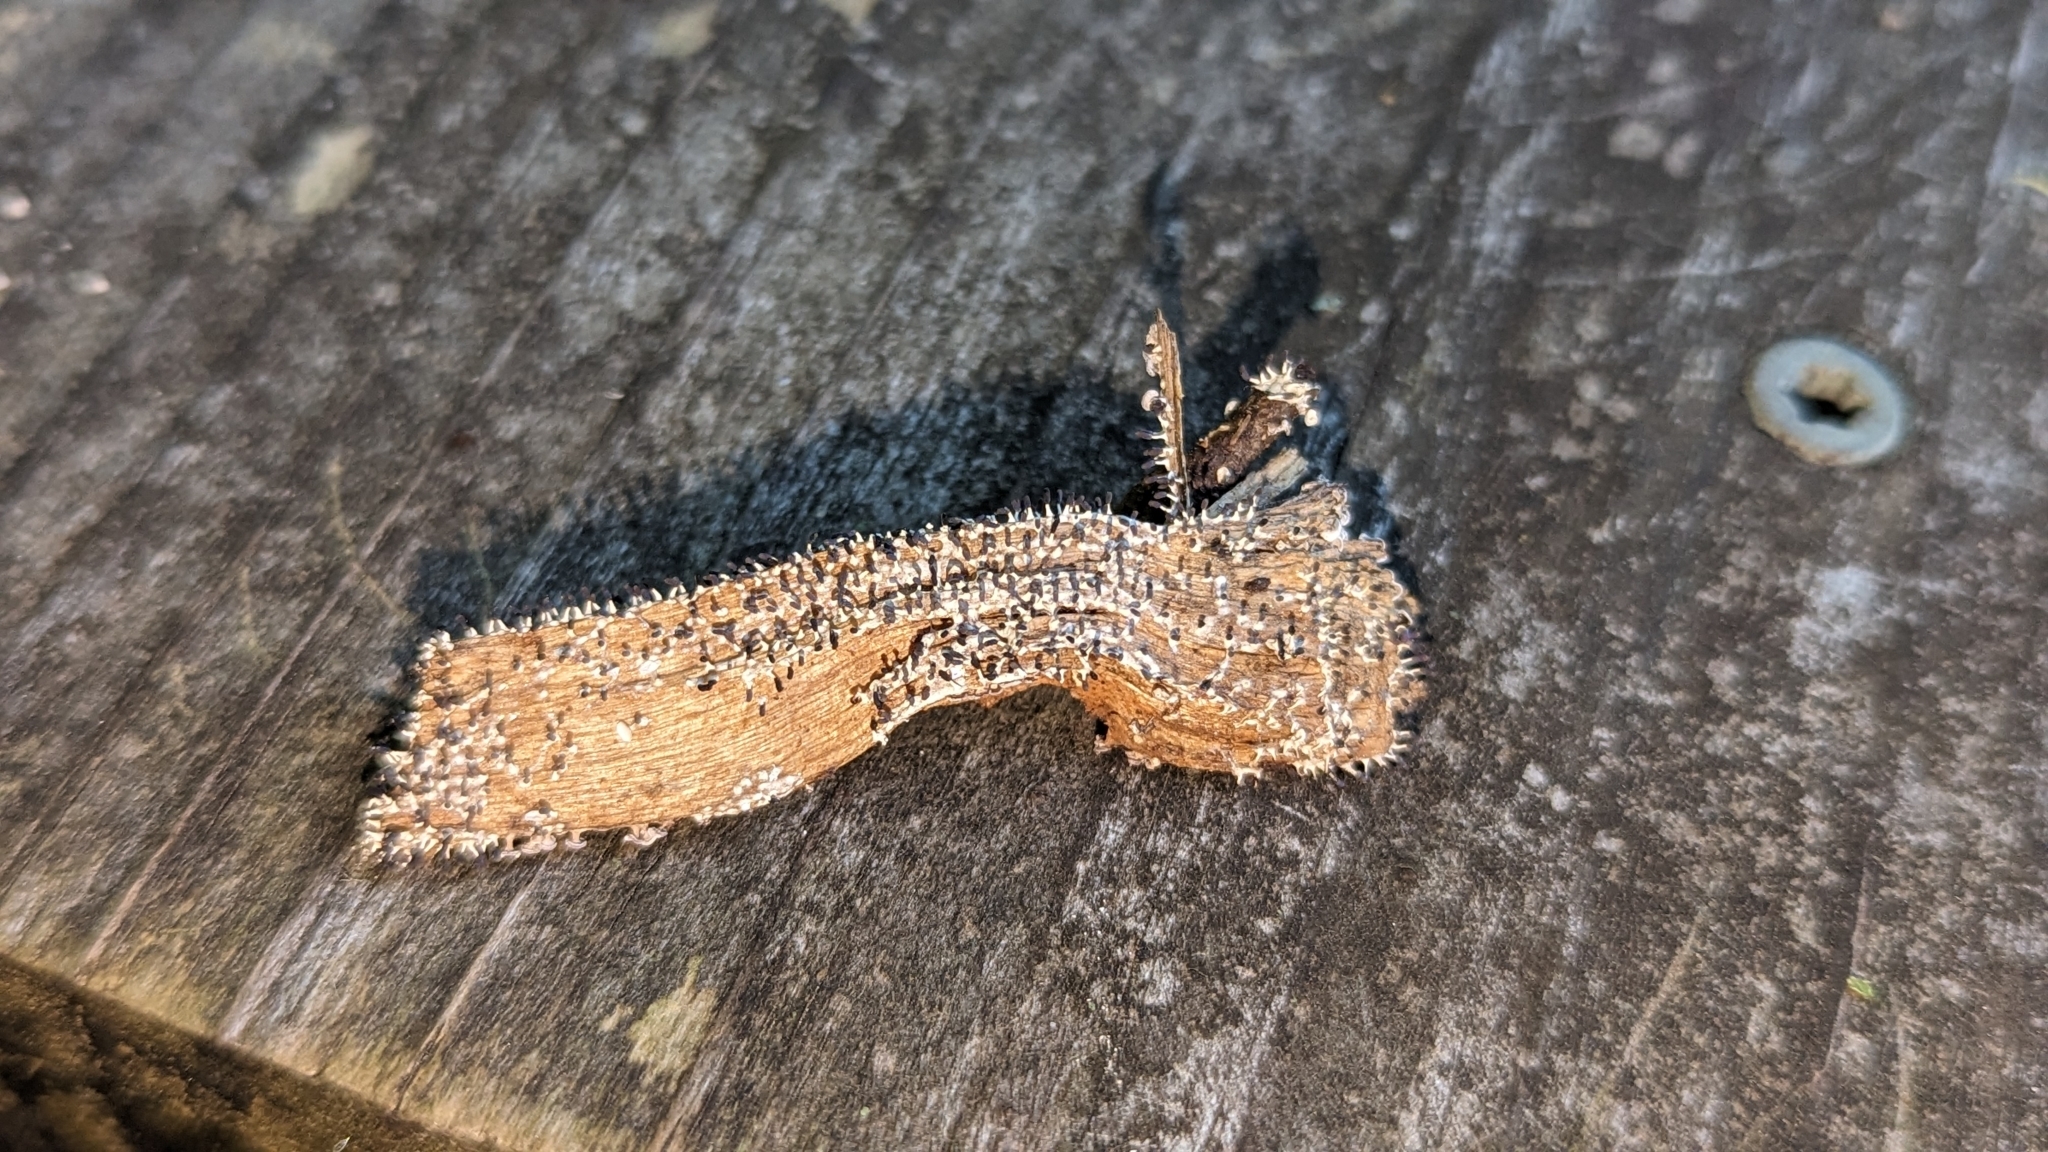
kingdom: Protozoa
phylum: Mycetozoa
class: Myxomycetes
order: Physarales
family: Didymiaceae
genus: Diachea
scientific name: Diachea leucopodia
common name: White-footed slime
